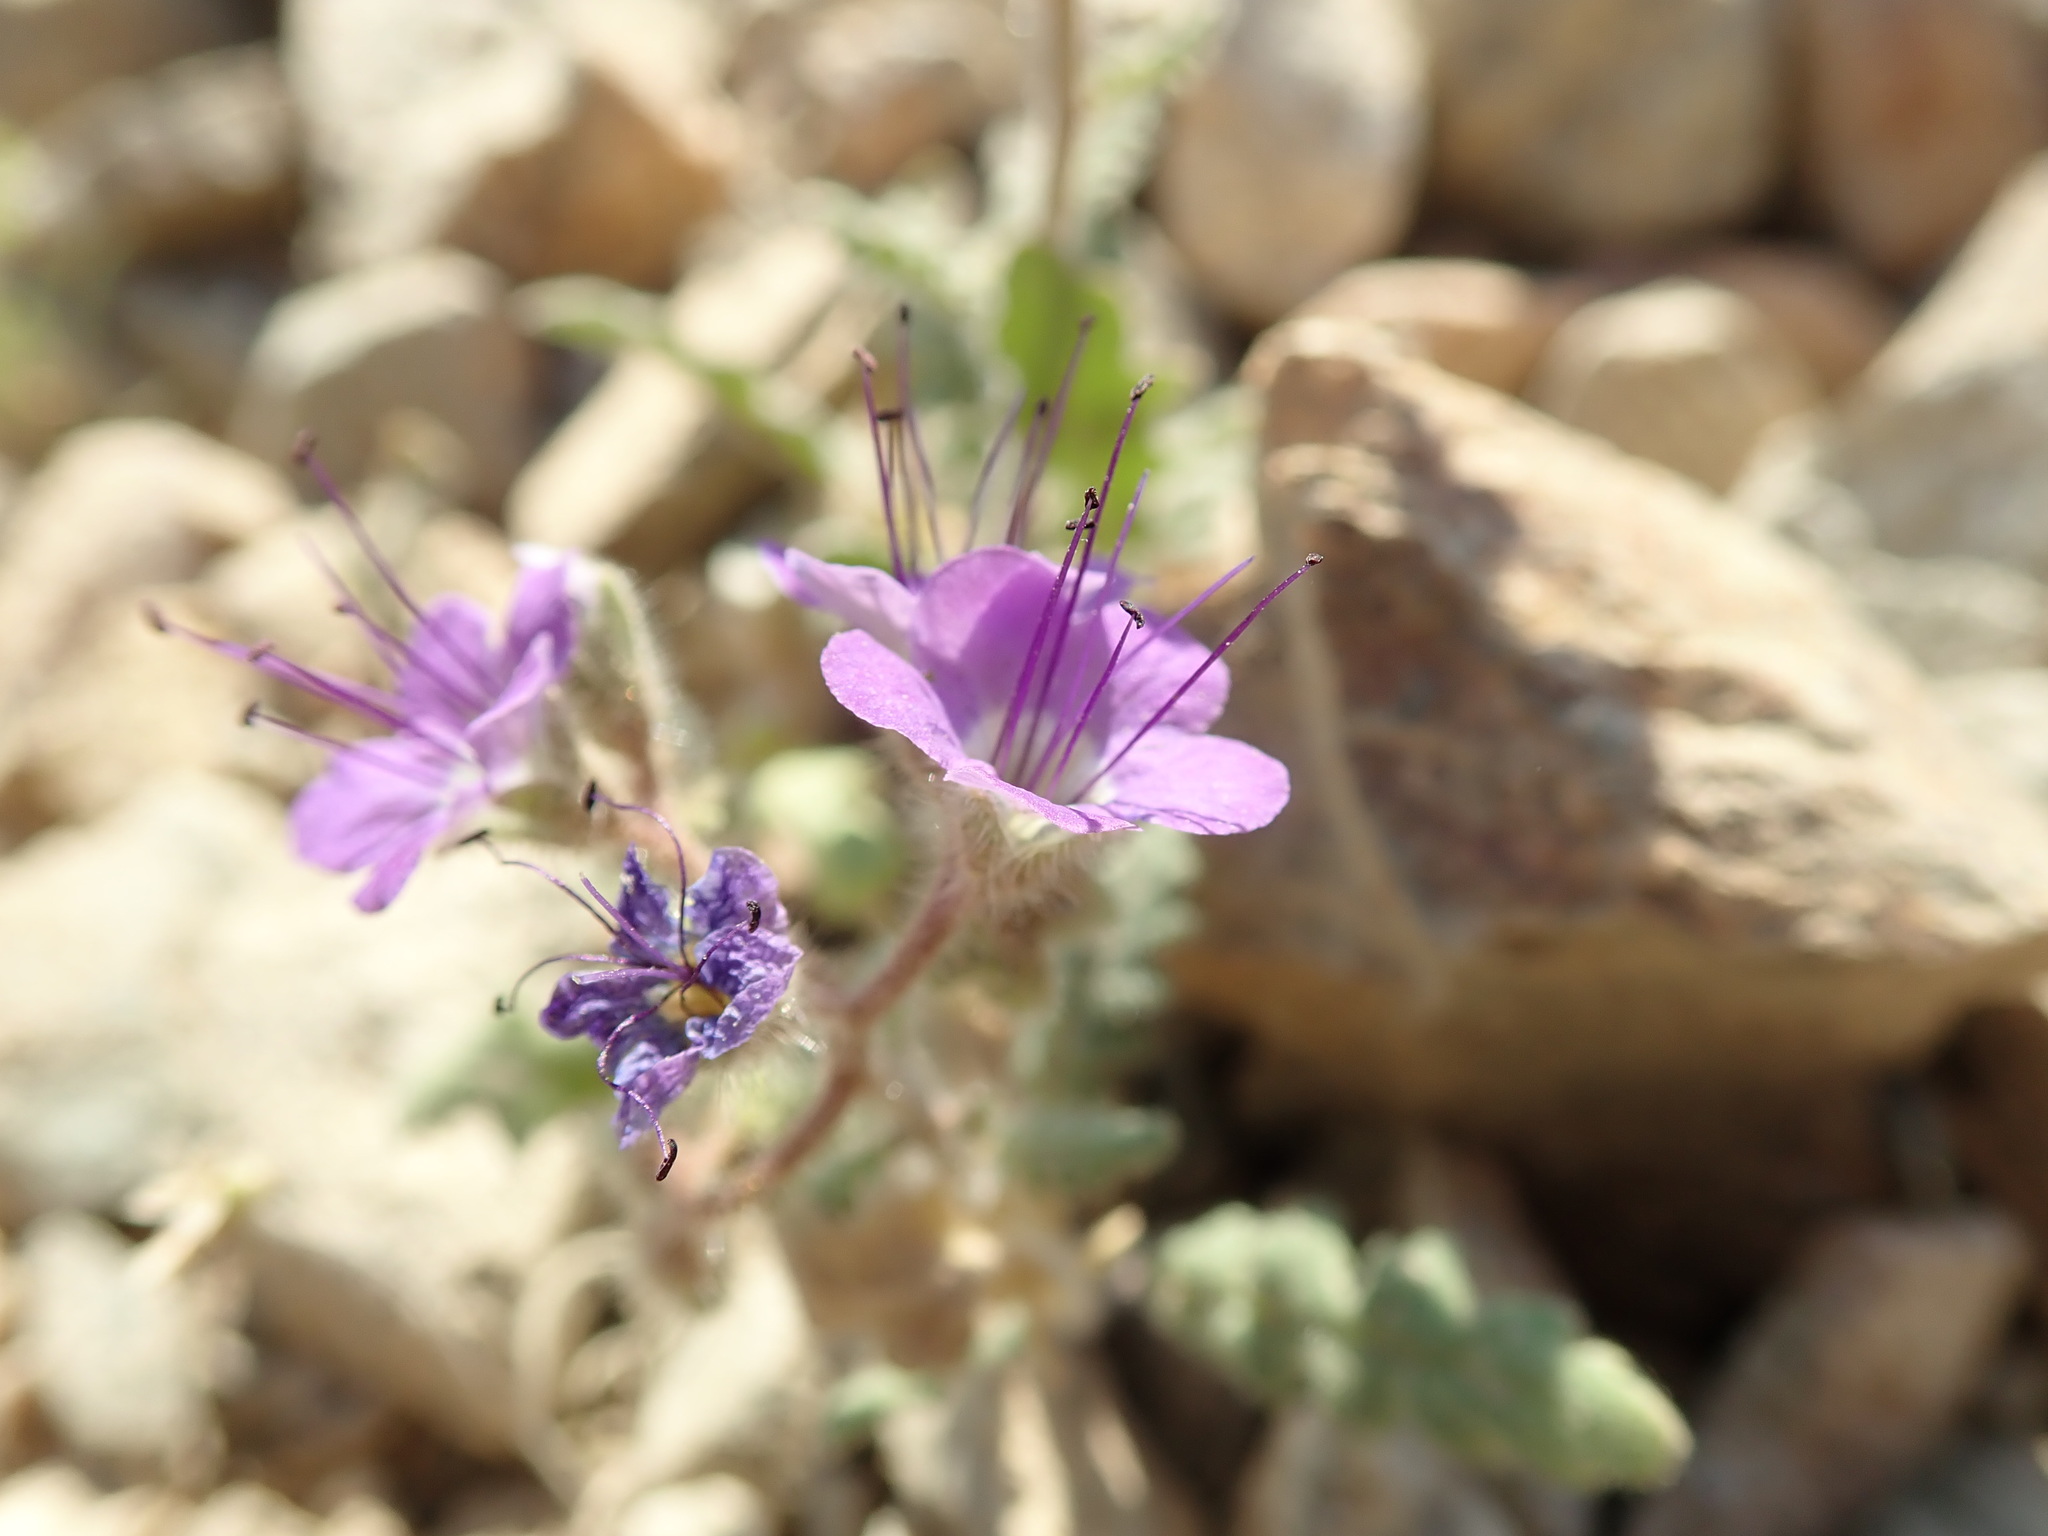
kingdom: Plantae
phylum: Tracheophyta
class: Magnoliopsida
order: Boraginales
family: Hydrophyllaceae
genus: Phacelia
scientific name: Phacelia crenulata
